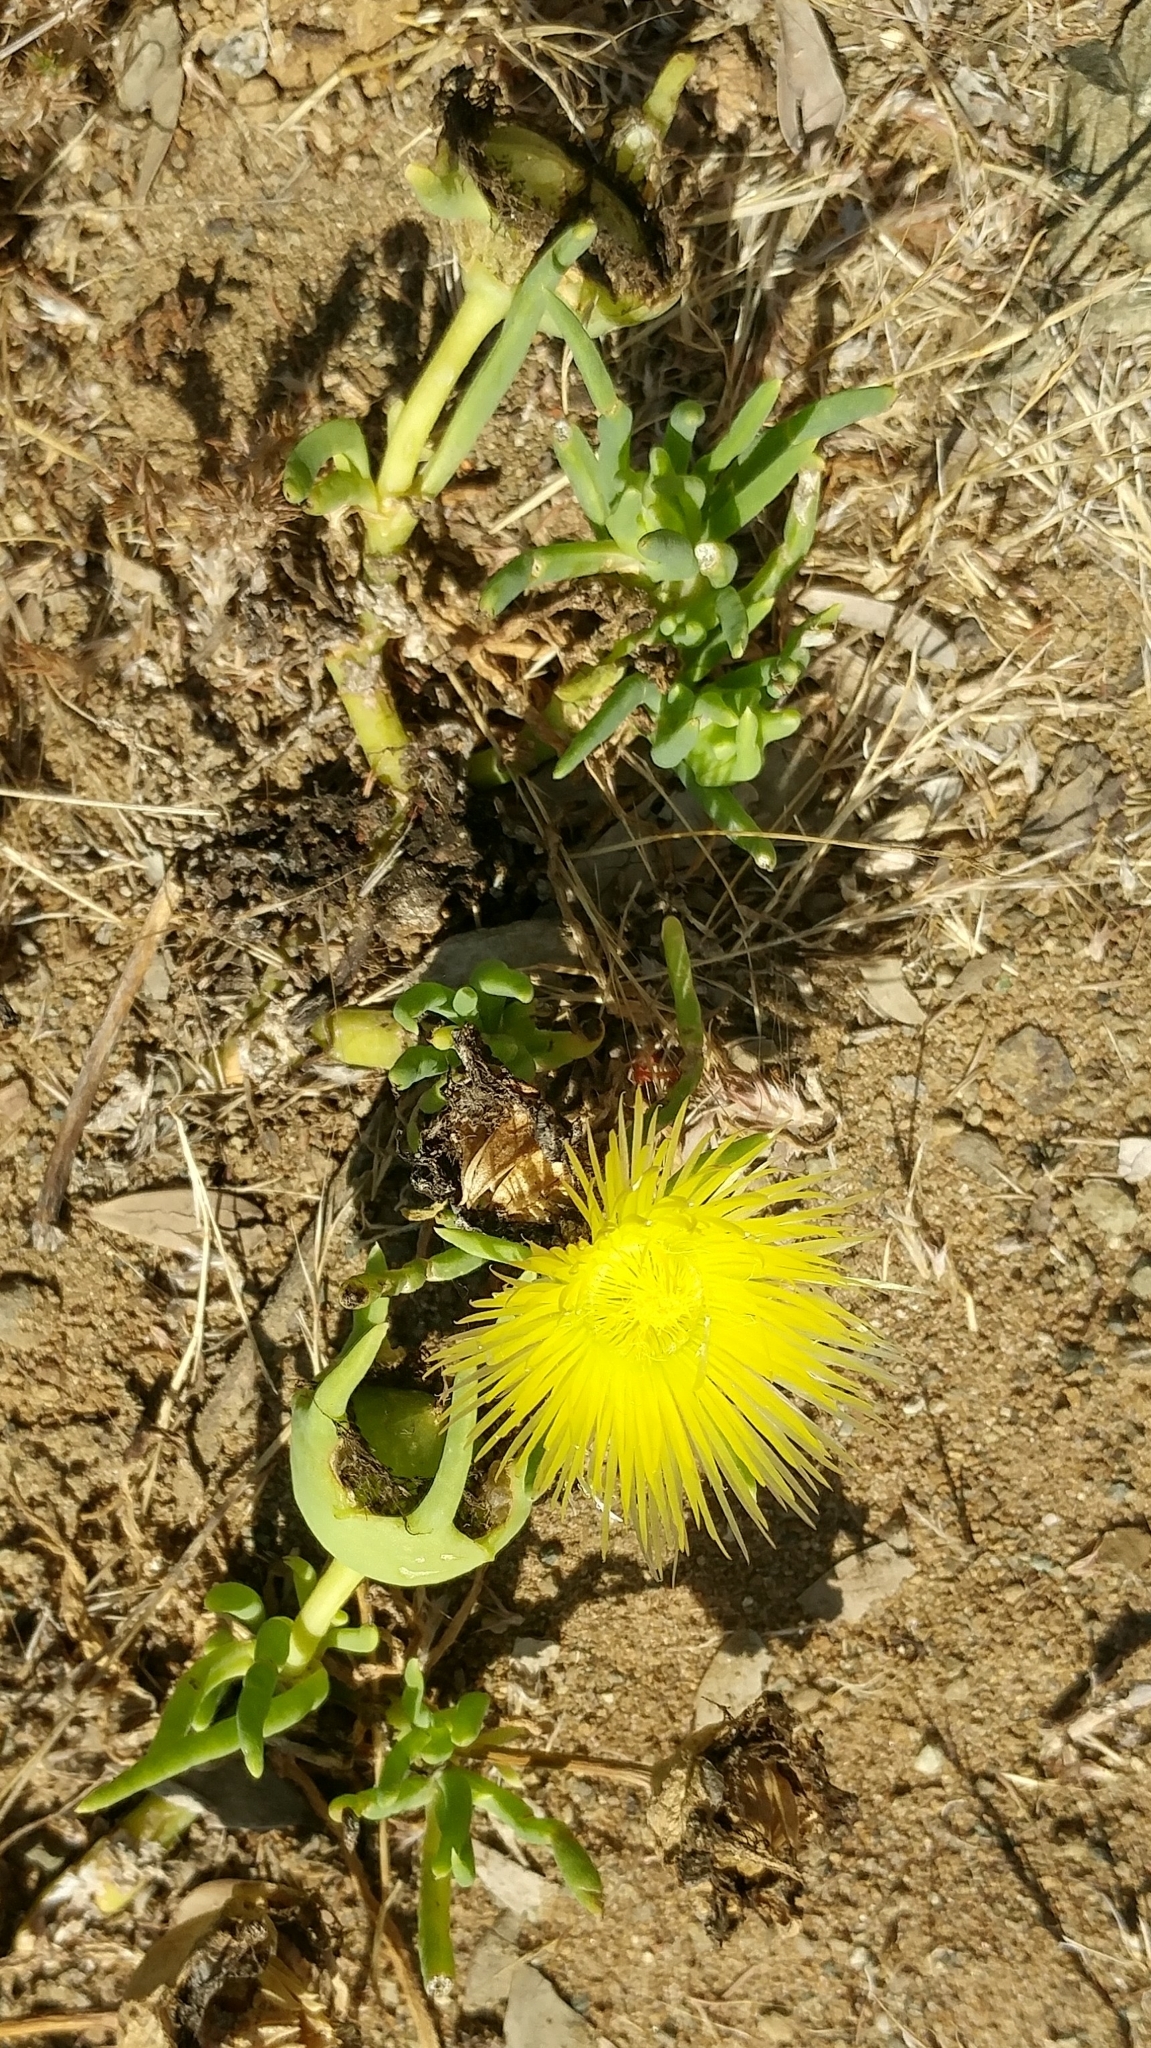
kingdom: Plantae
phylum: Tracheophyta
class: Magnoliopsida
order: Caryophyllales
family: Aizoaceae
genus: Conicosia
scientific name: Conicosia pugioniformis
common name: Narrow-leaved iceplant
